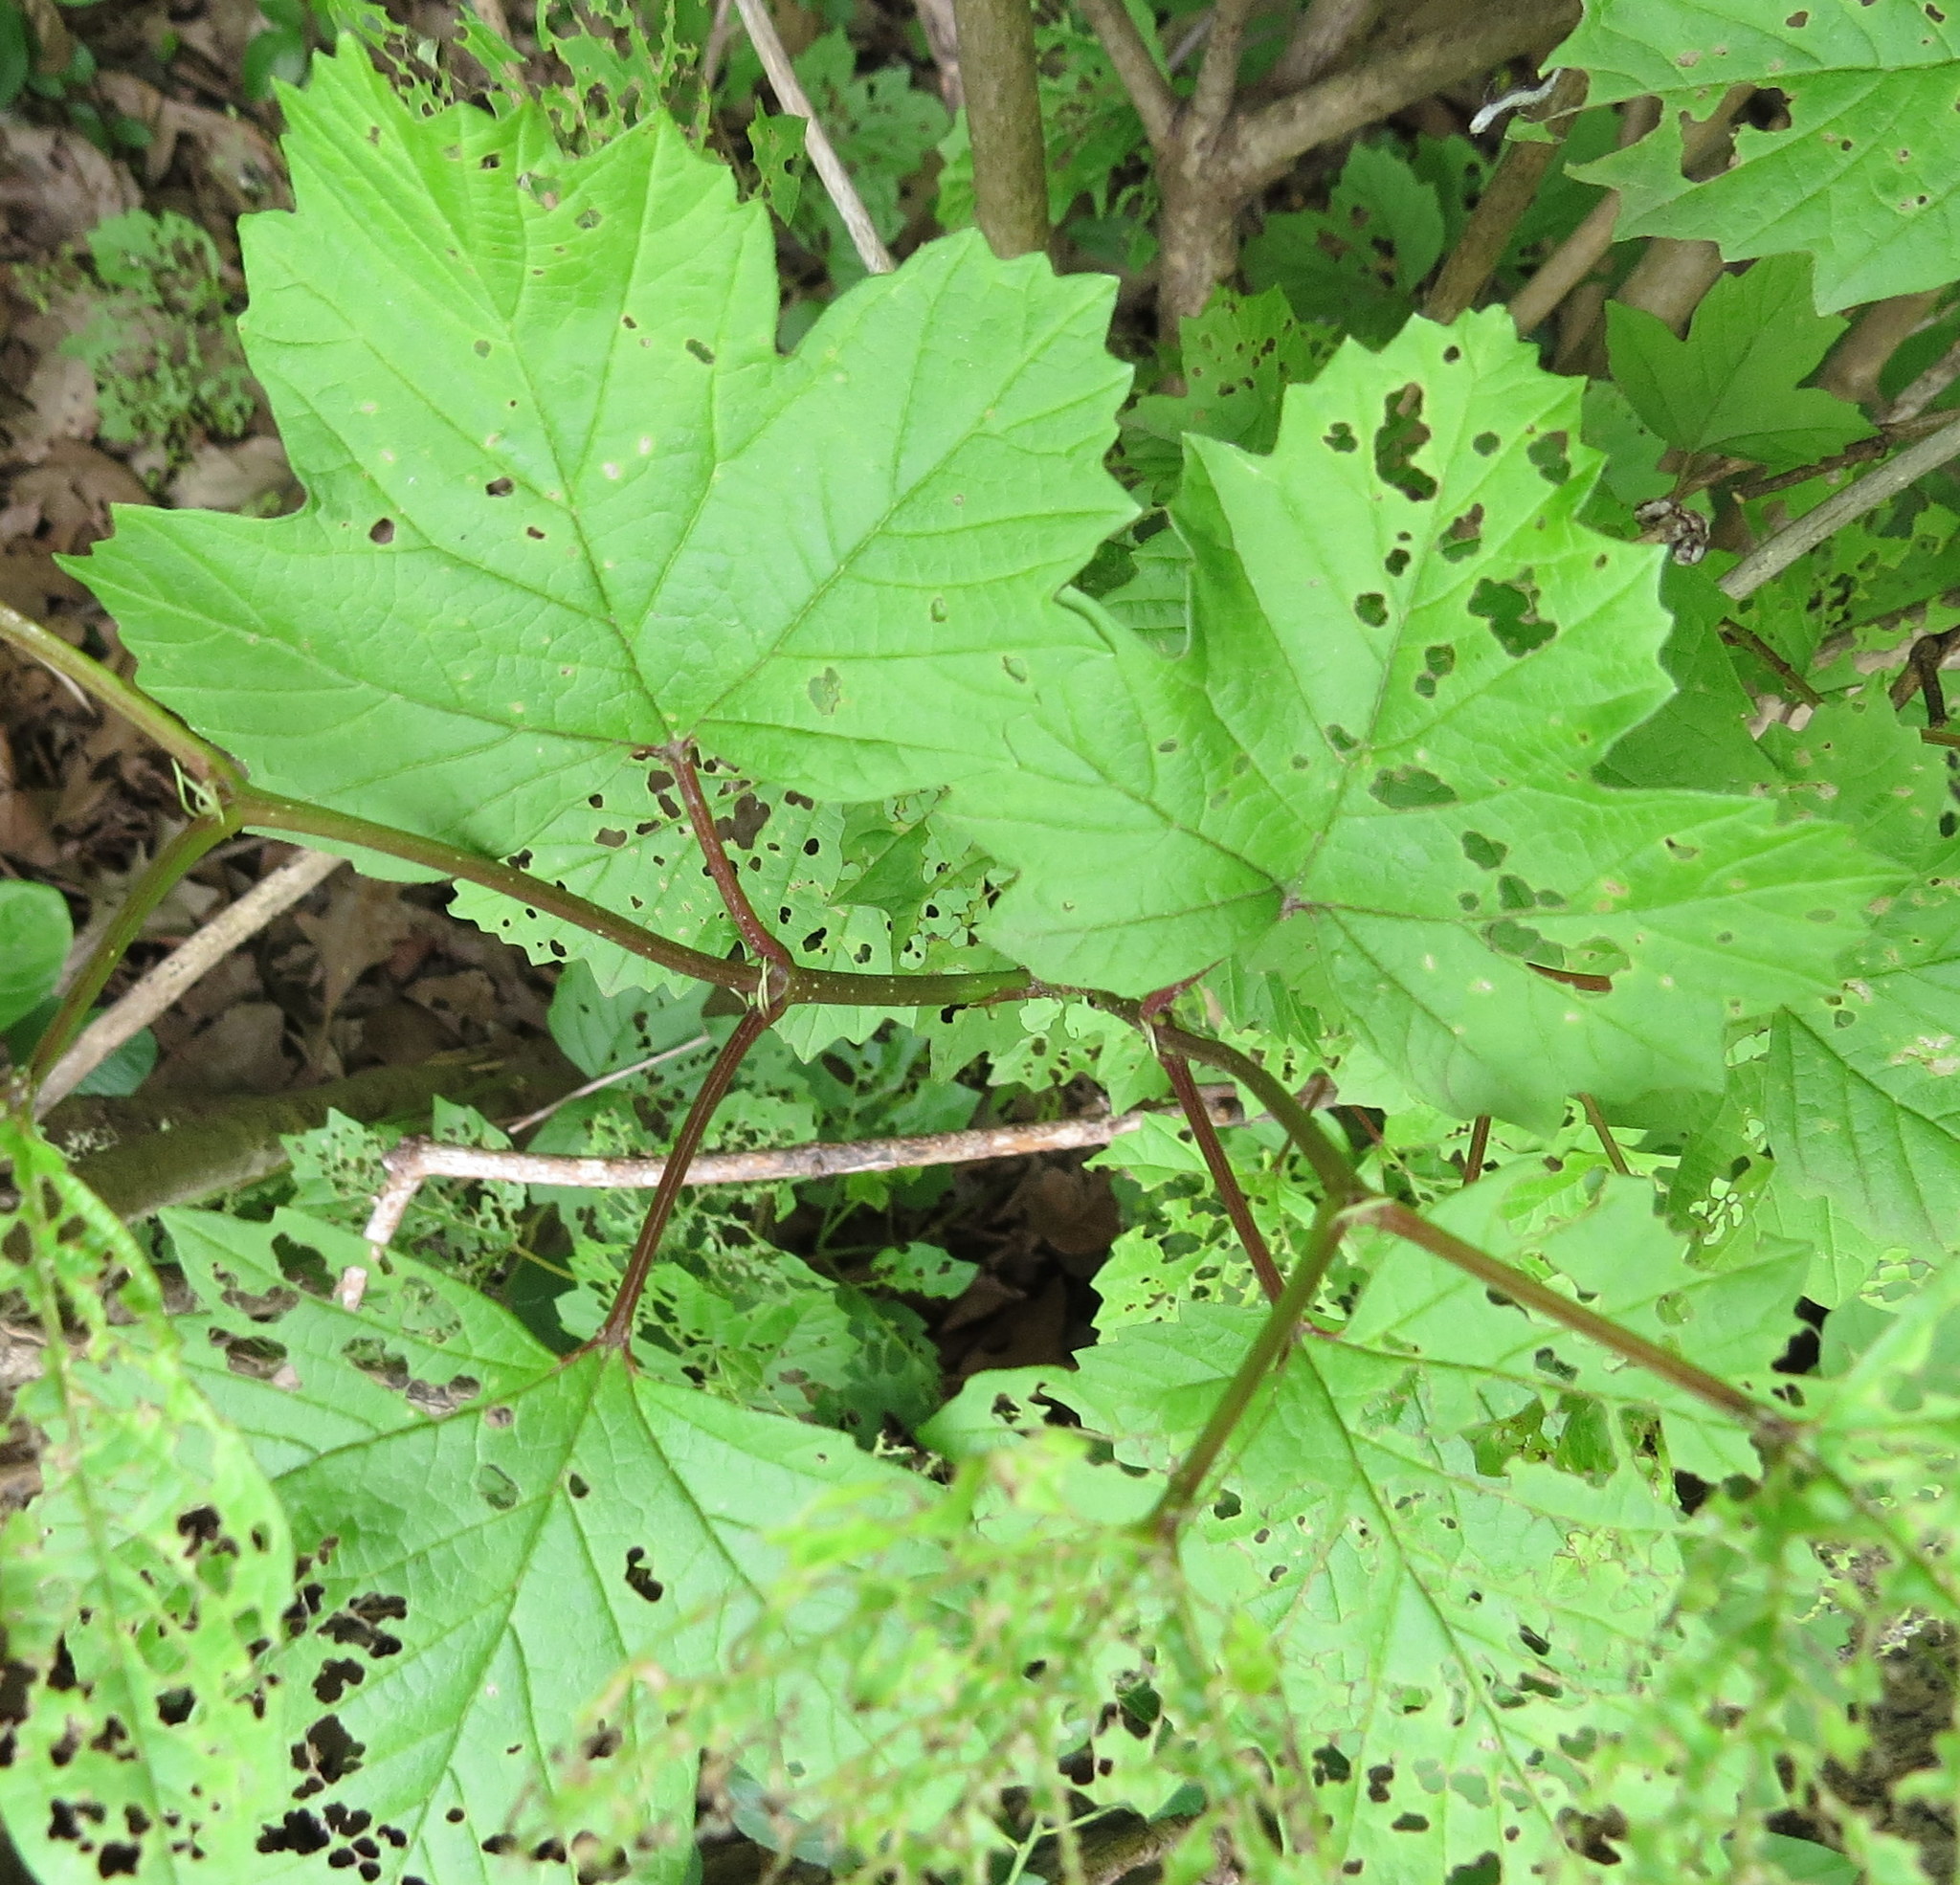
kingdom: Plantae
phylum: Tracheophyta
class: Magnoliopsida
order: Dipsacales
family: Viburnaceae
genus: Viburnum
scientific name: Viburnum opulus
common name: Guelder-rose
